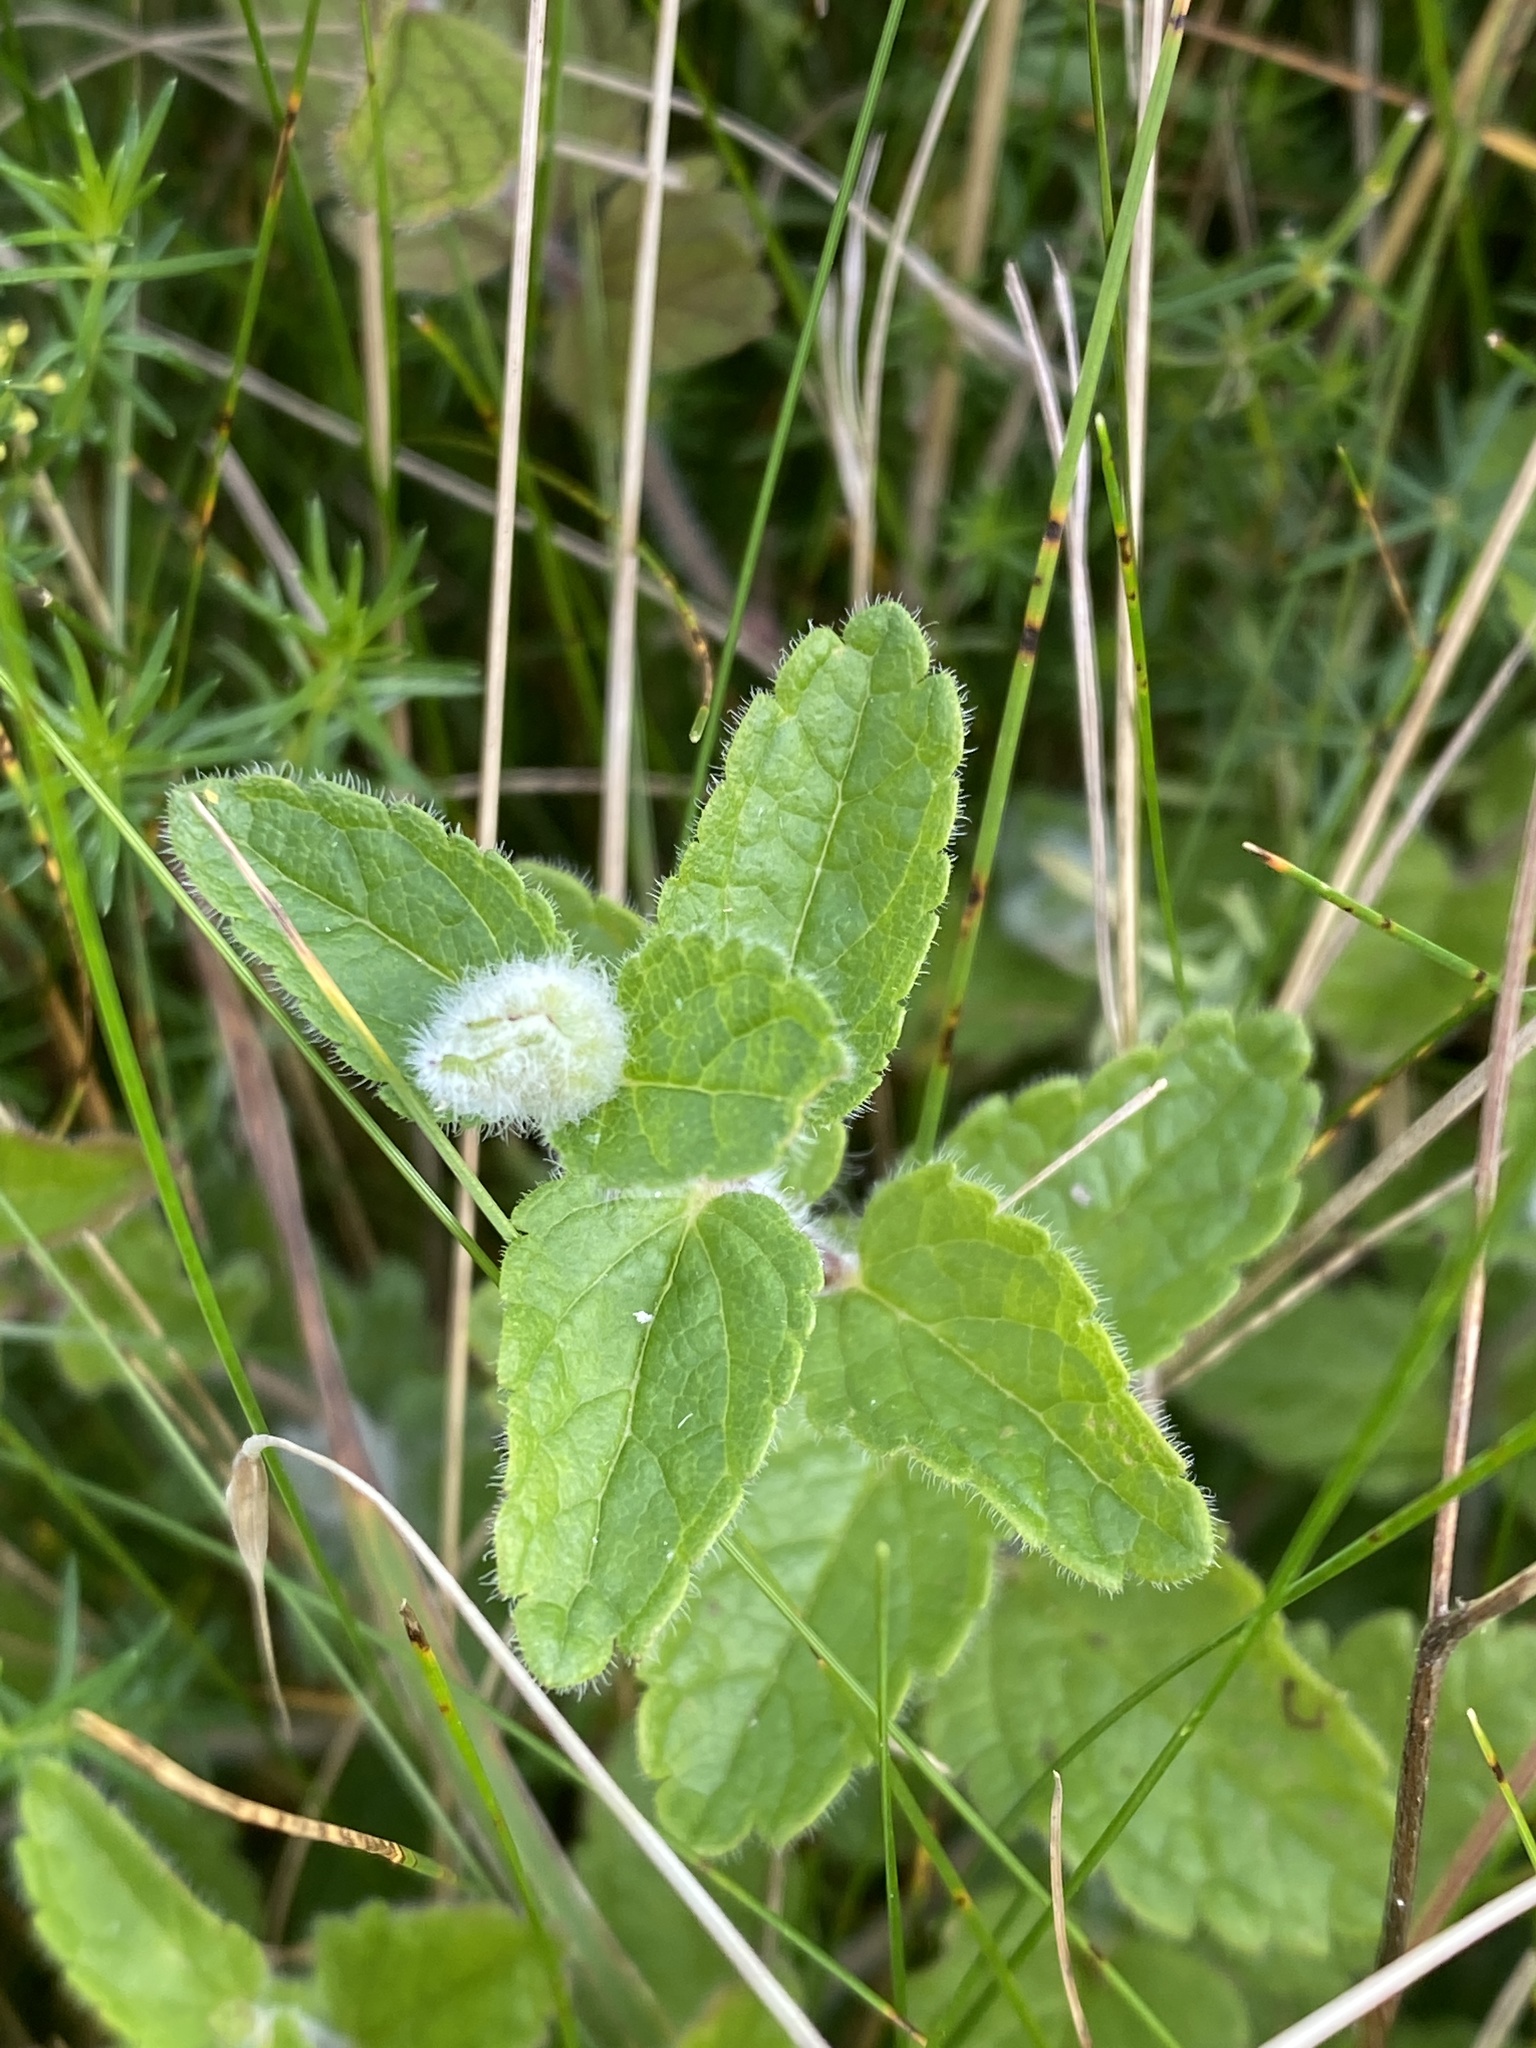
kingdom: Plantae
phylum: Tracheophyta
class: Magnoliopsida
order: Lamiales
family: Plantaginaceae
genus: Veronica
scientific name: Veronica chamaedrys
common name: Germander speedwell
